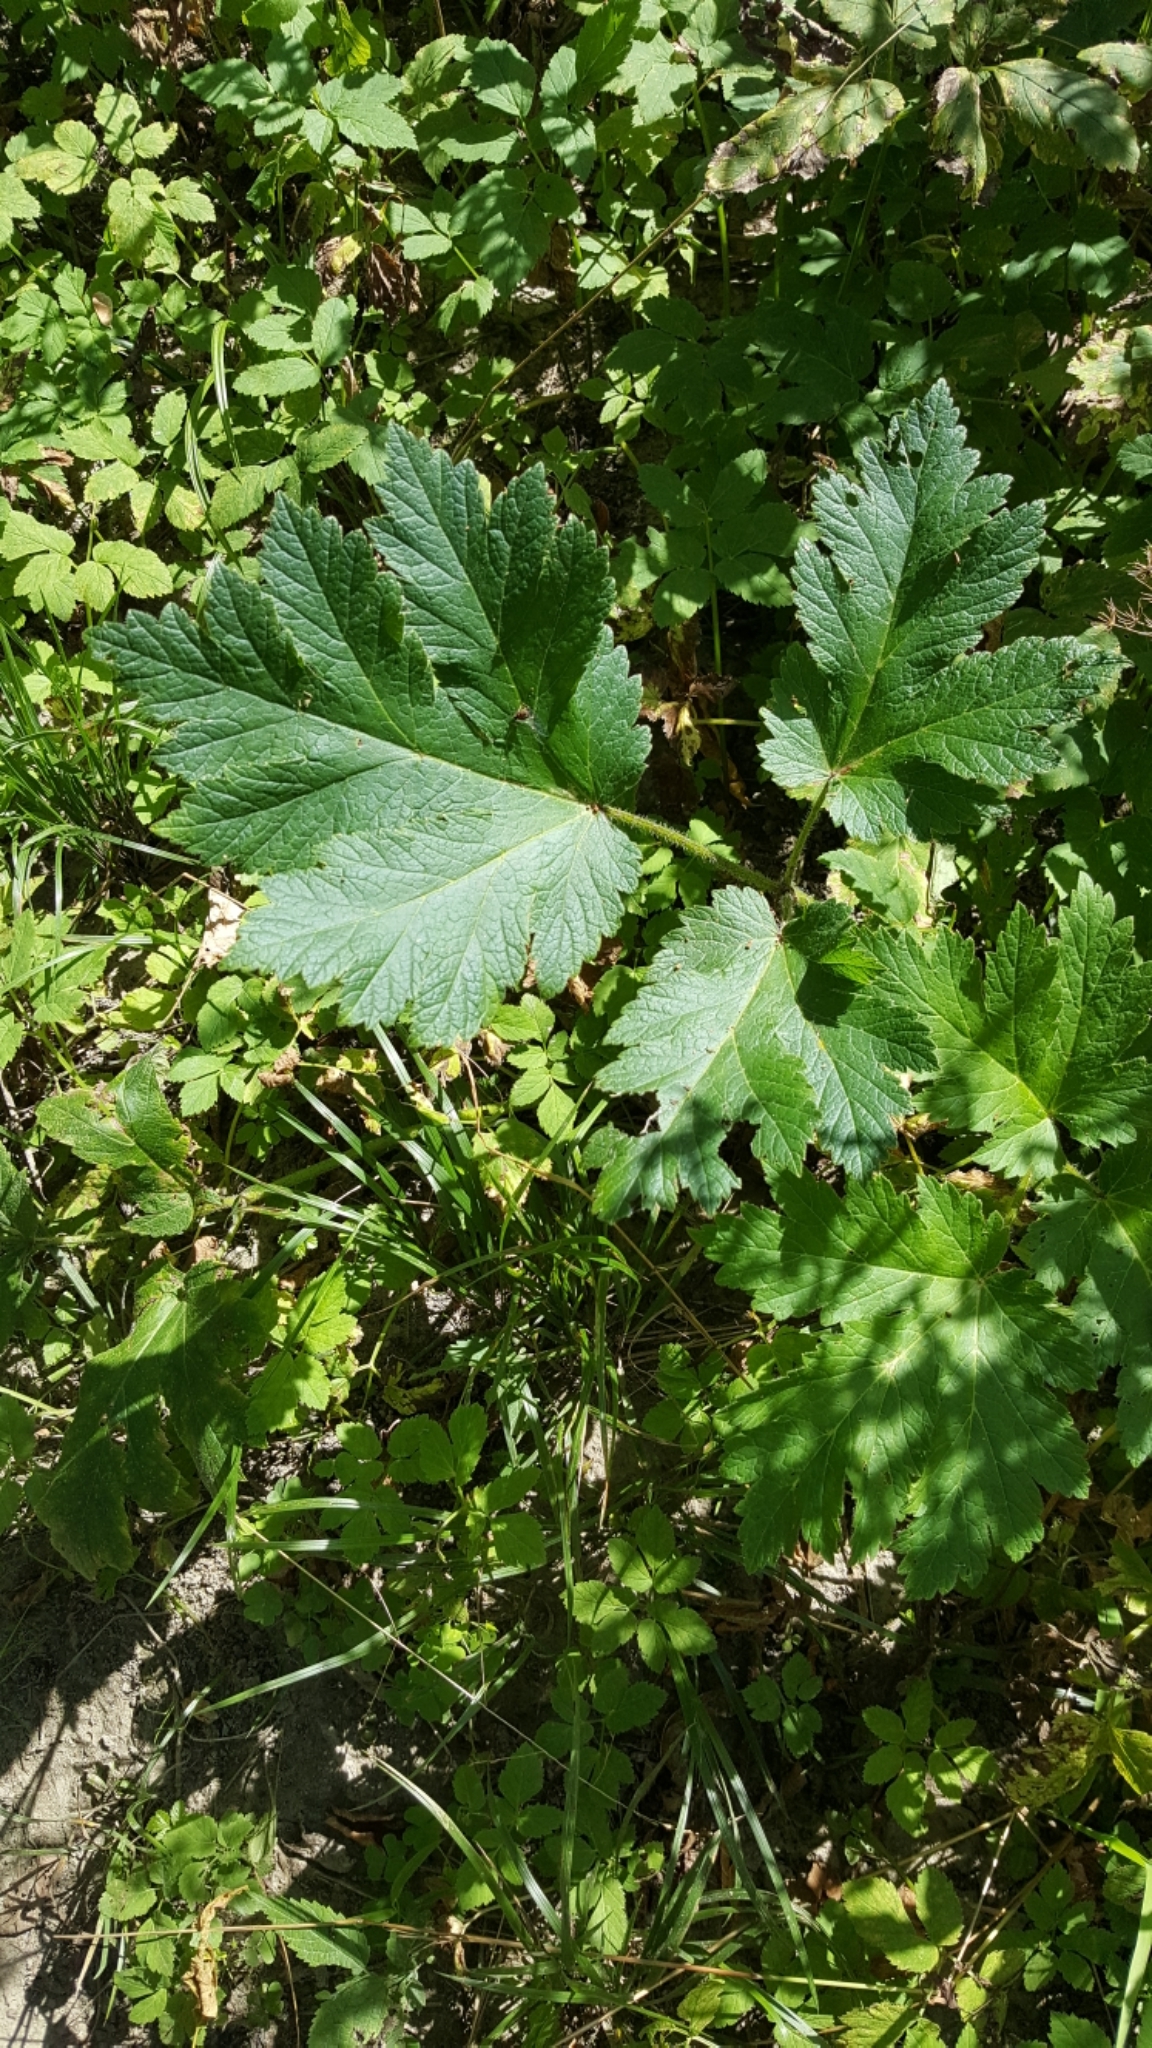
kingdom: Plantae
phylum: Tracheophyta
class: Magnoliopsida
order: Apiales
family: Apiaceae
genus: Heracleum
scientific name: Heracleum maximum
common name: American cow parsnip
